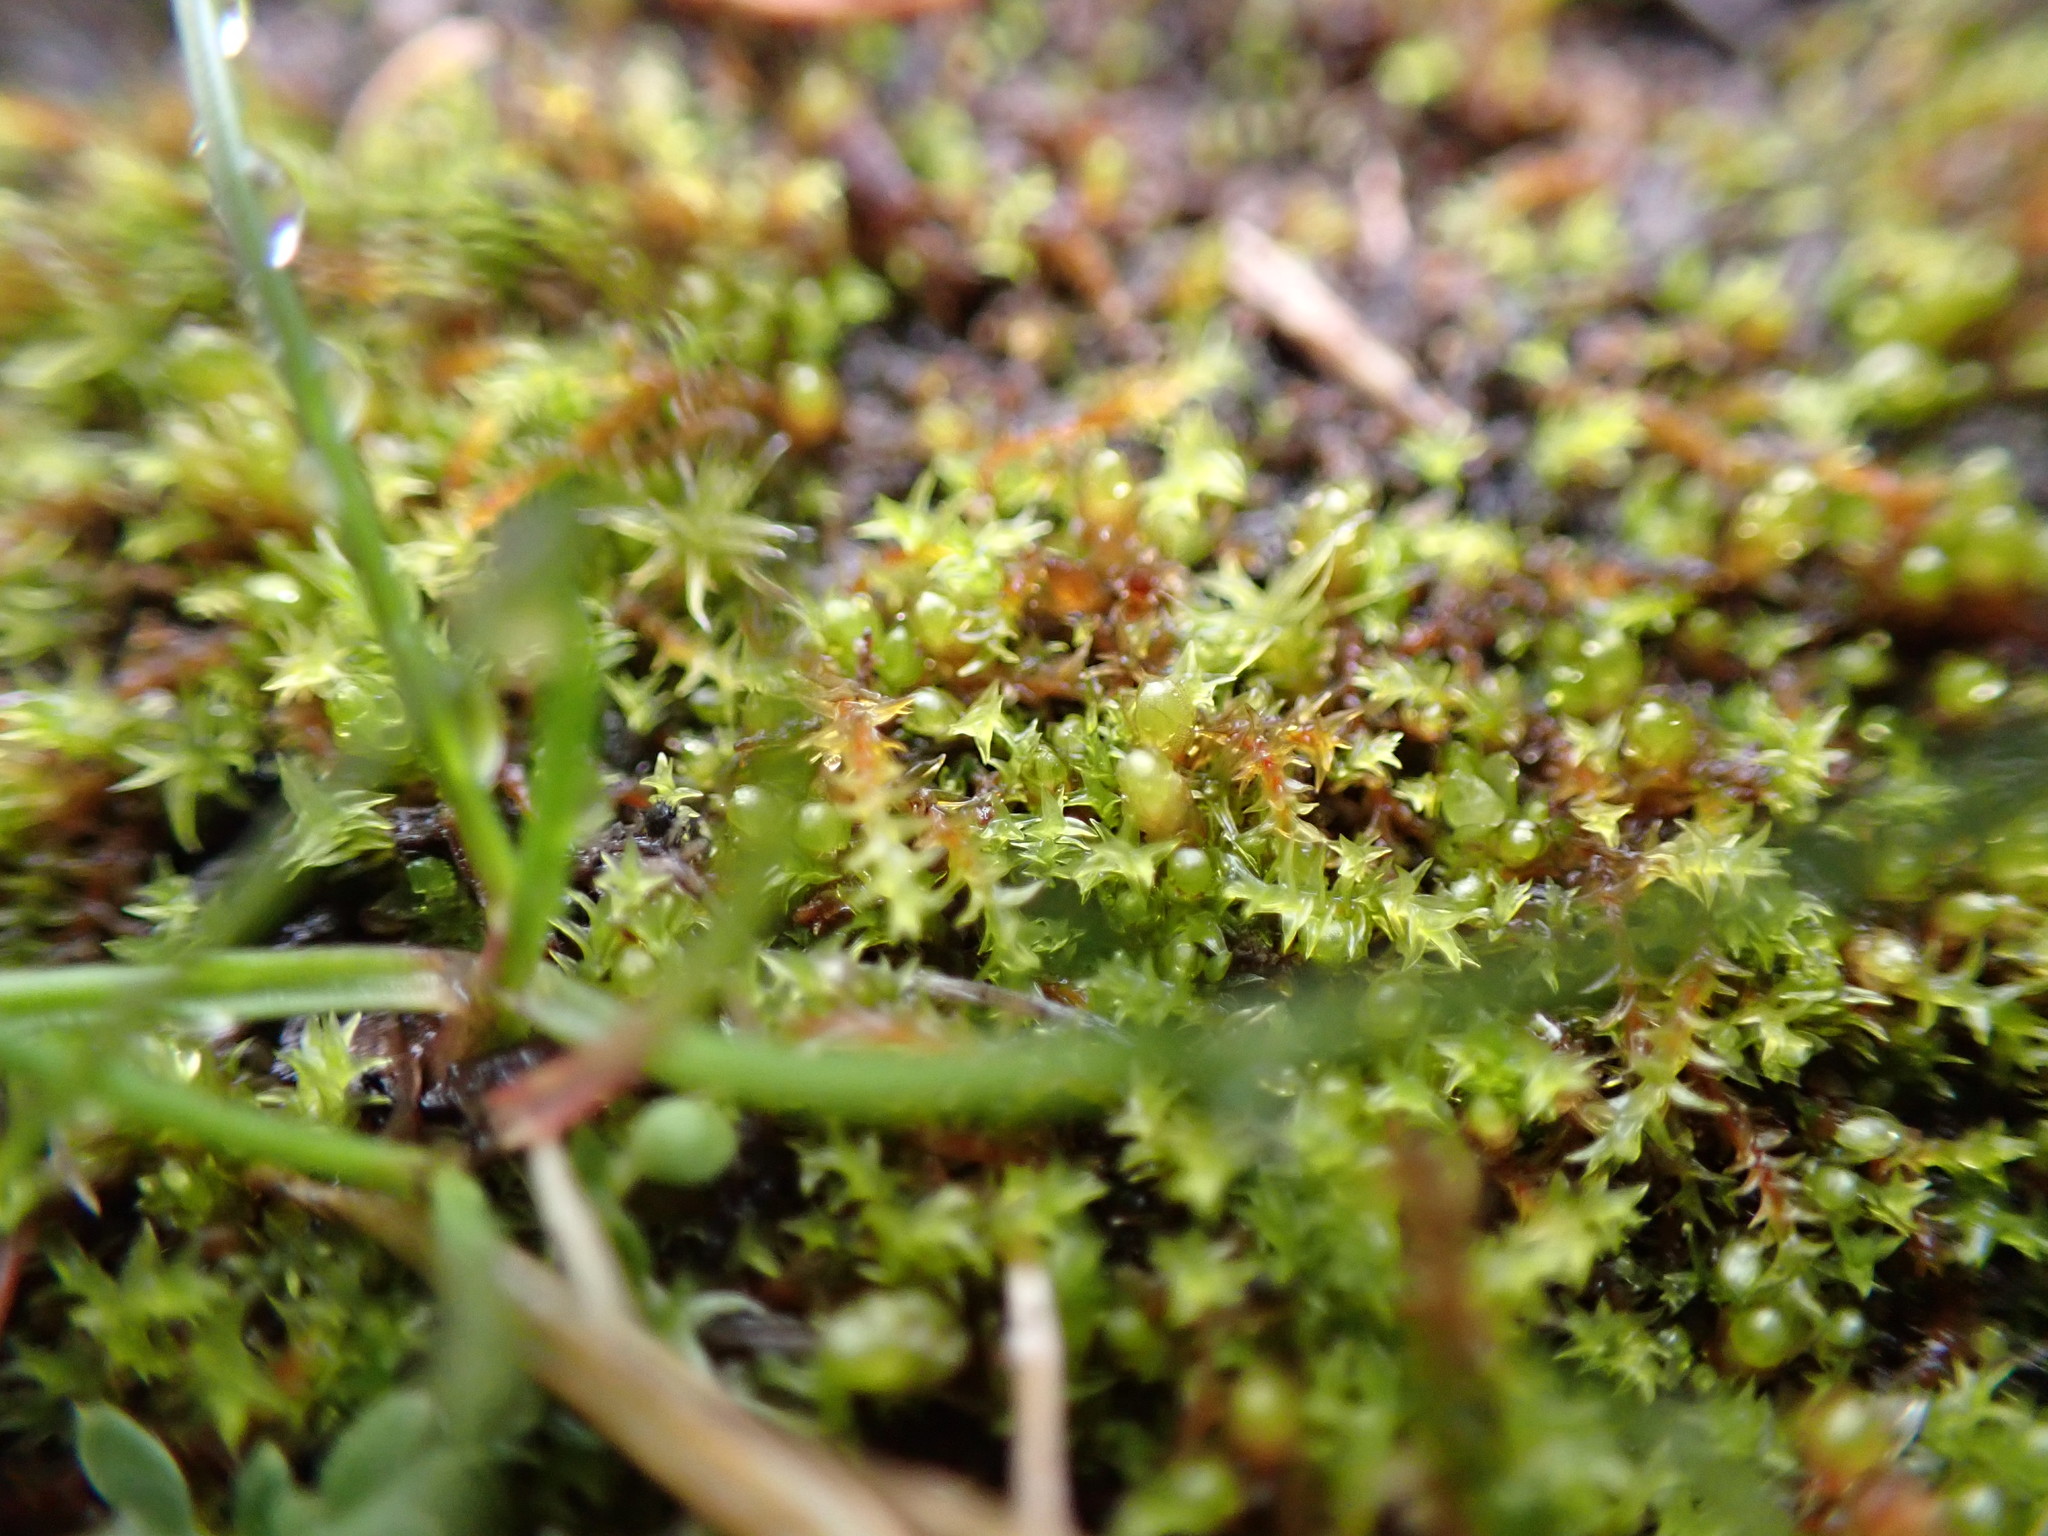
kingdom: Plantae
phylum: Bryophyta
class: Bryopsida
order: Pottiales
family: Pottiaceae
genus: Triquetrella
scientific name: Triquetrella californica
